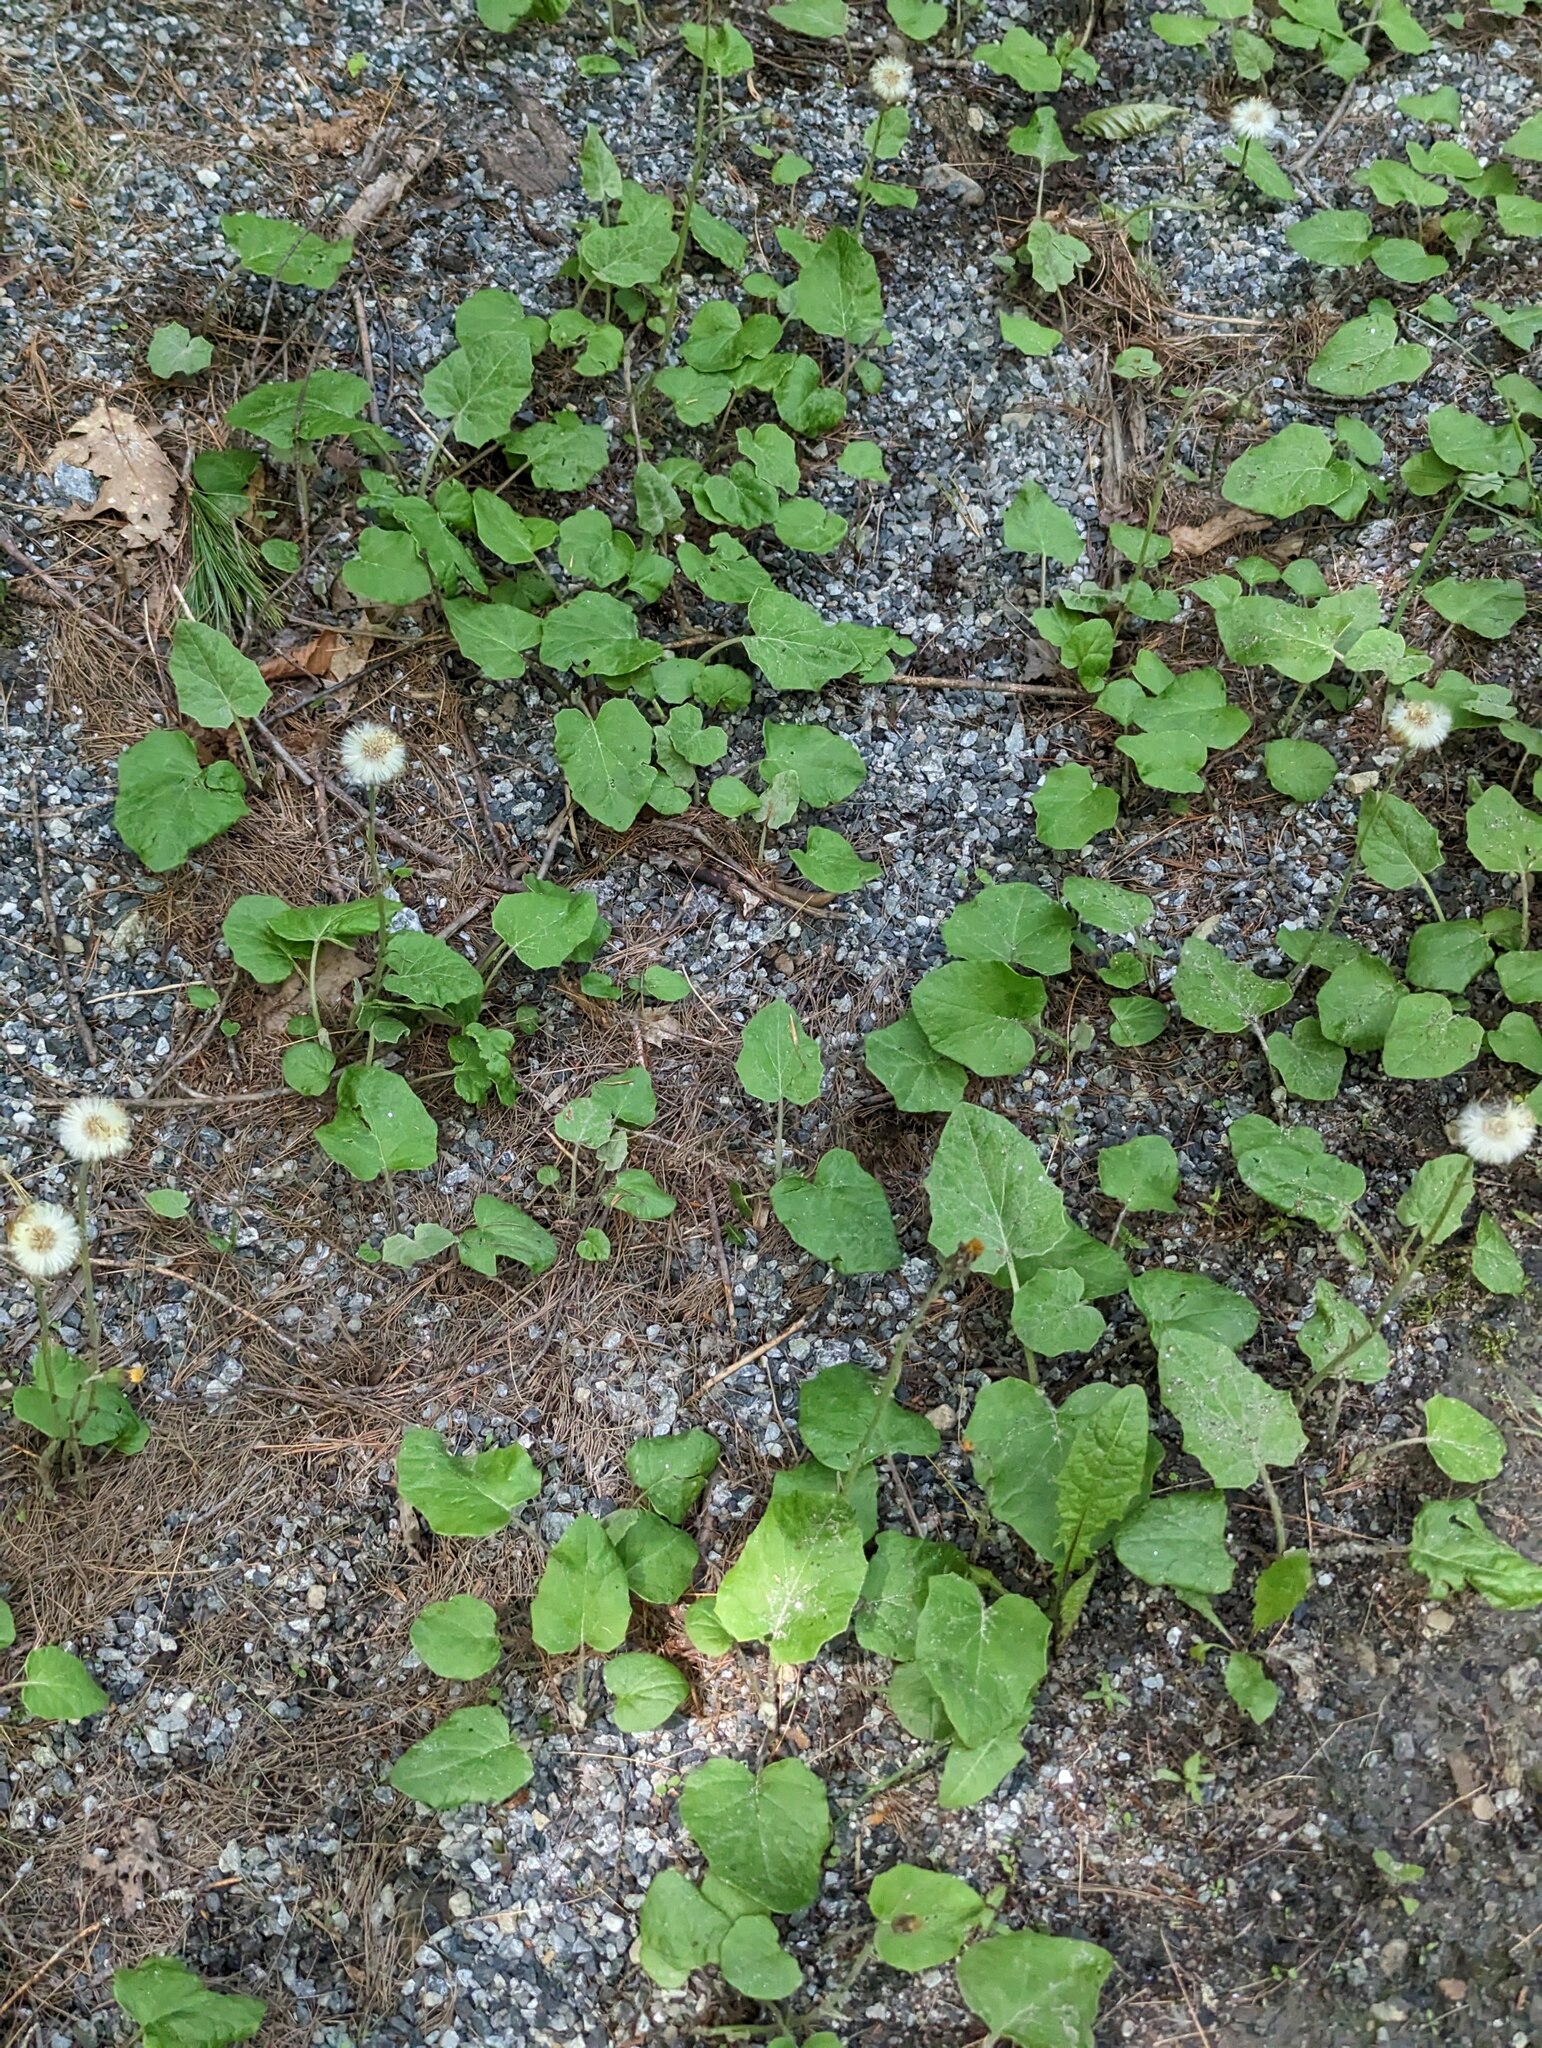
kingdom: Plantae
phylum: Tracheophyta
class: Magnoliopsida
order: Asterales
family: Asteraceae
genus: Tussilago
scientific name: Tussilago farfara
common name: Coltsfoot
